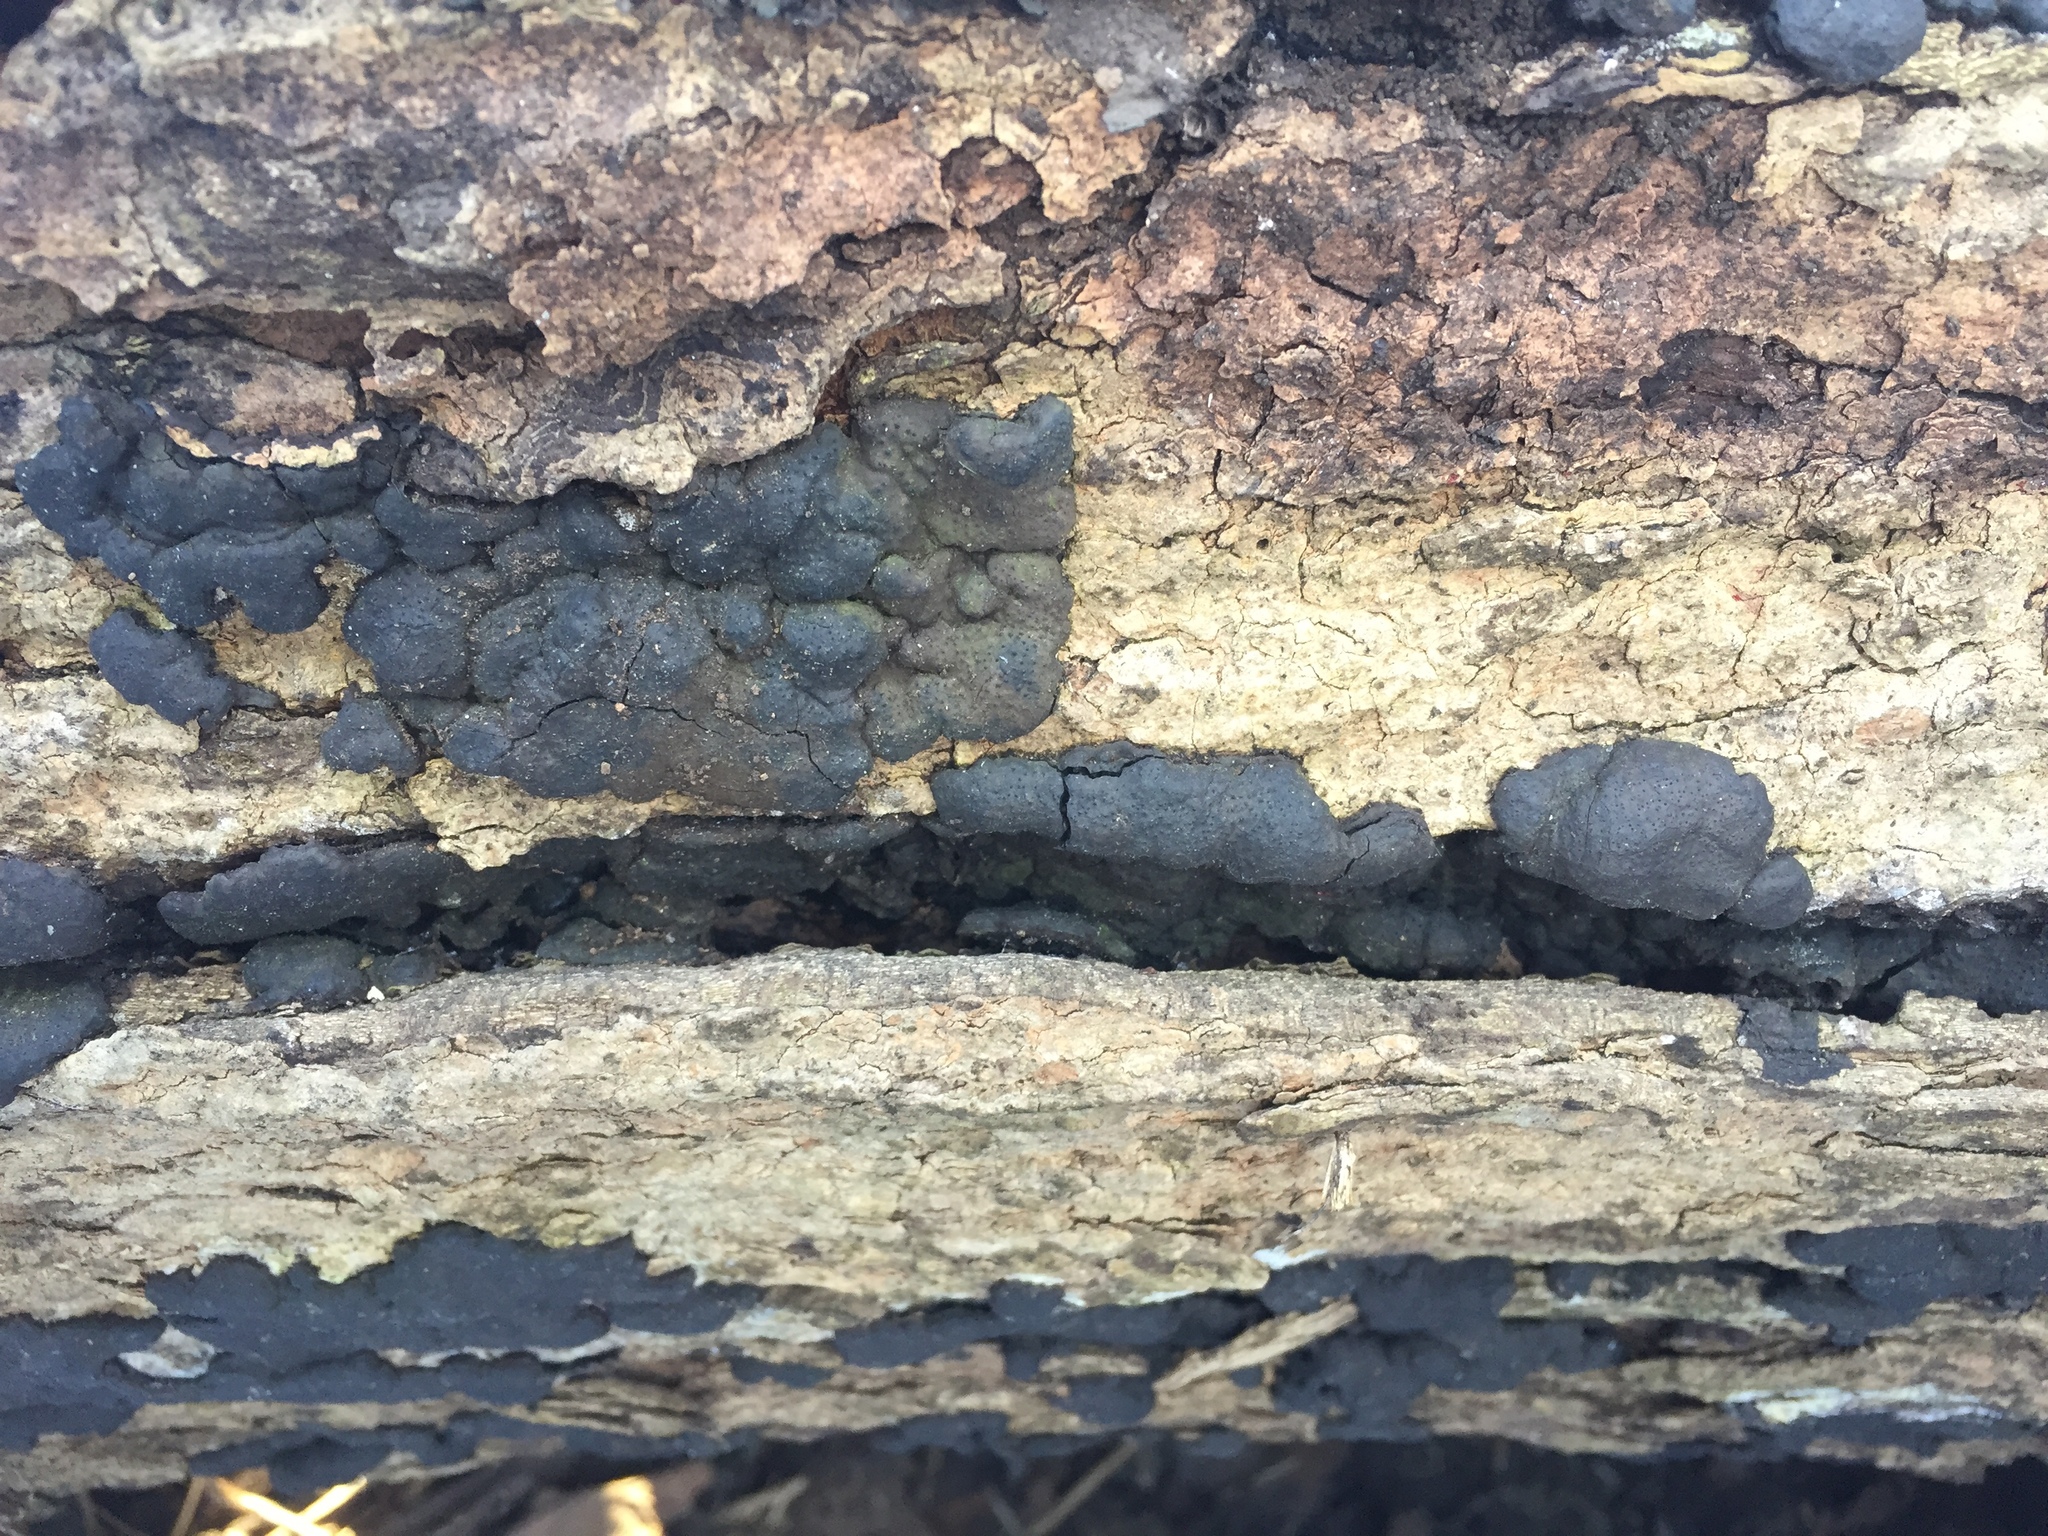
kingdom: Fungi
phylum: Ascomycota
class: Sordariomycetes
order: Xylariales
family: Xylariaceae
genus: Kretzschmaria
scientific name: Kretzschmaria deusta
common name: Brittle cinder
